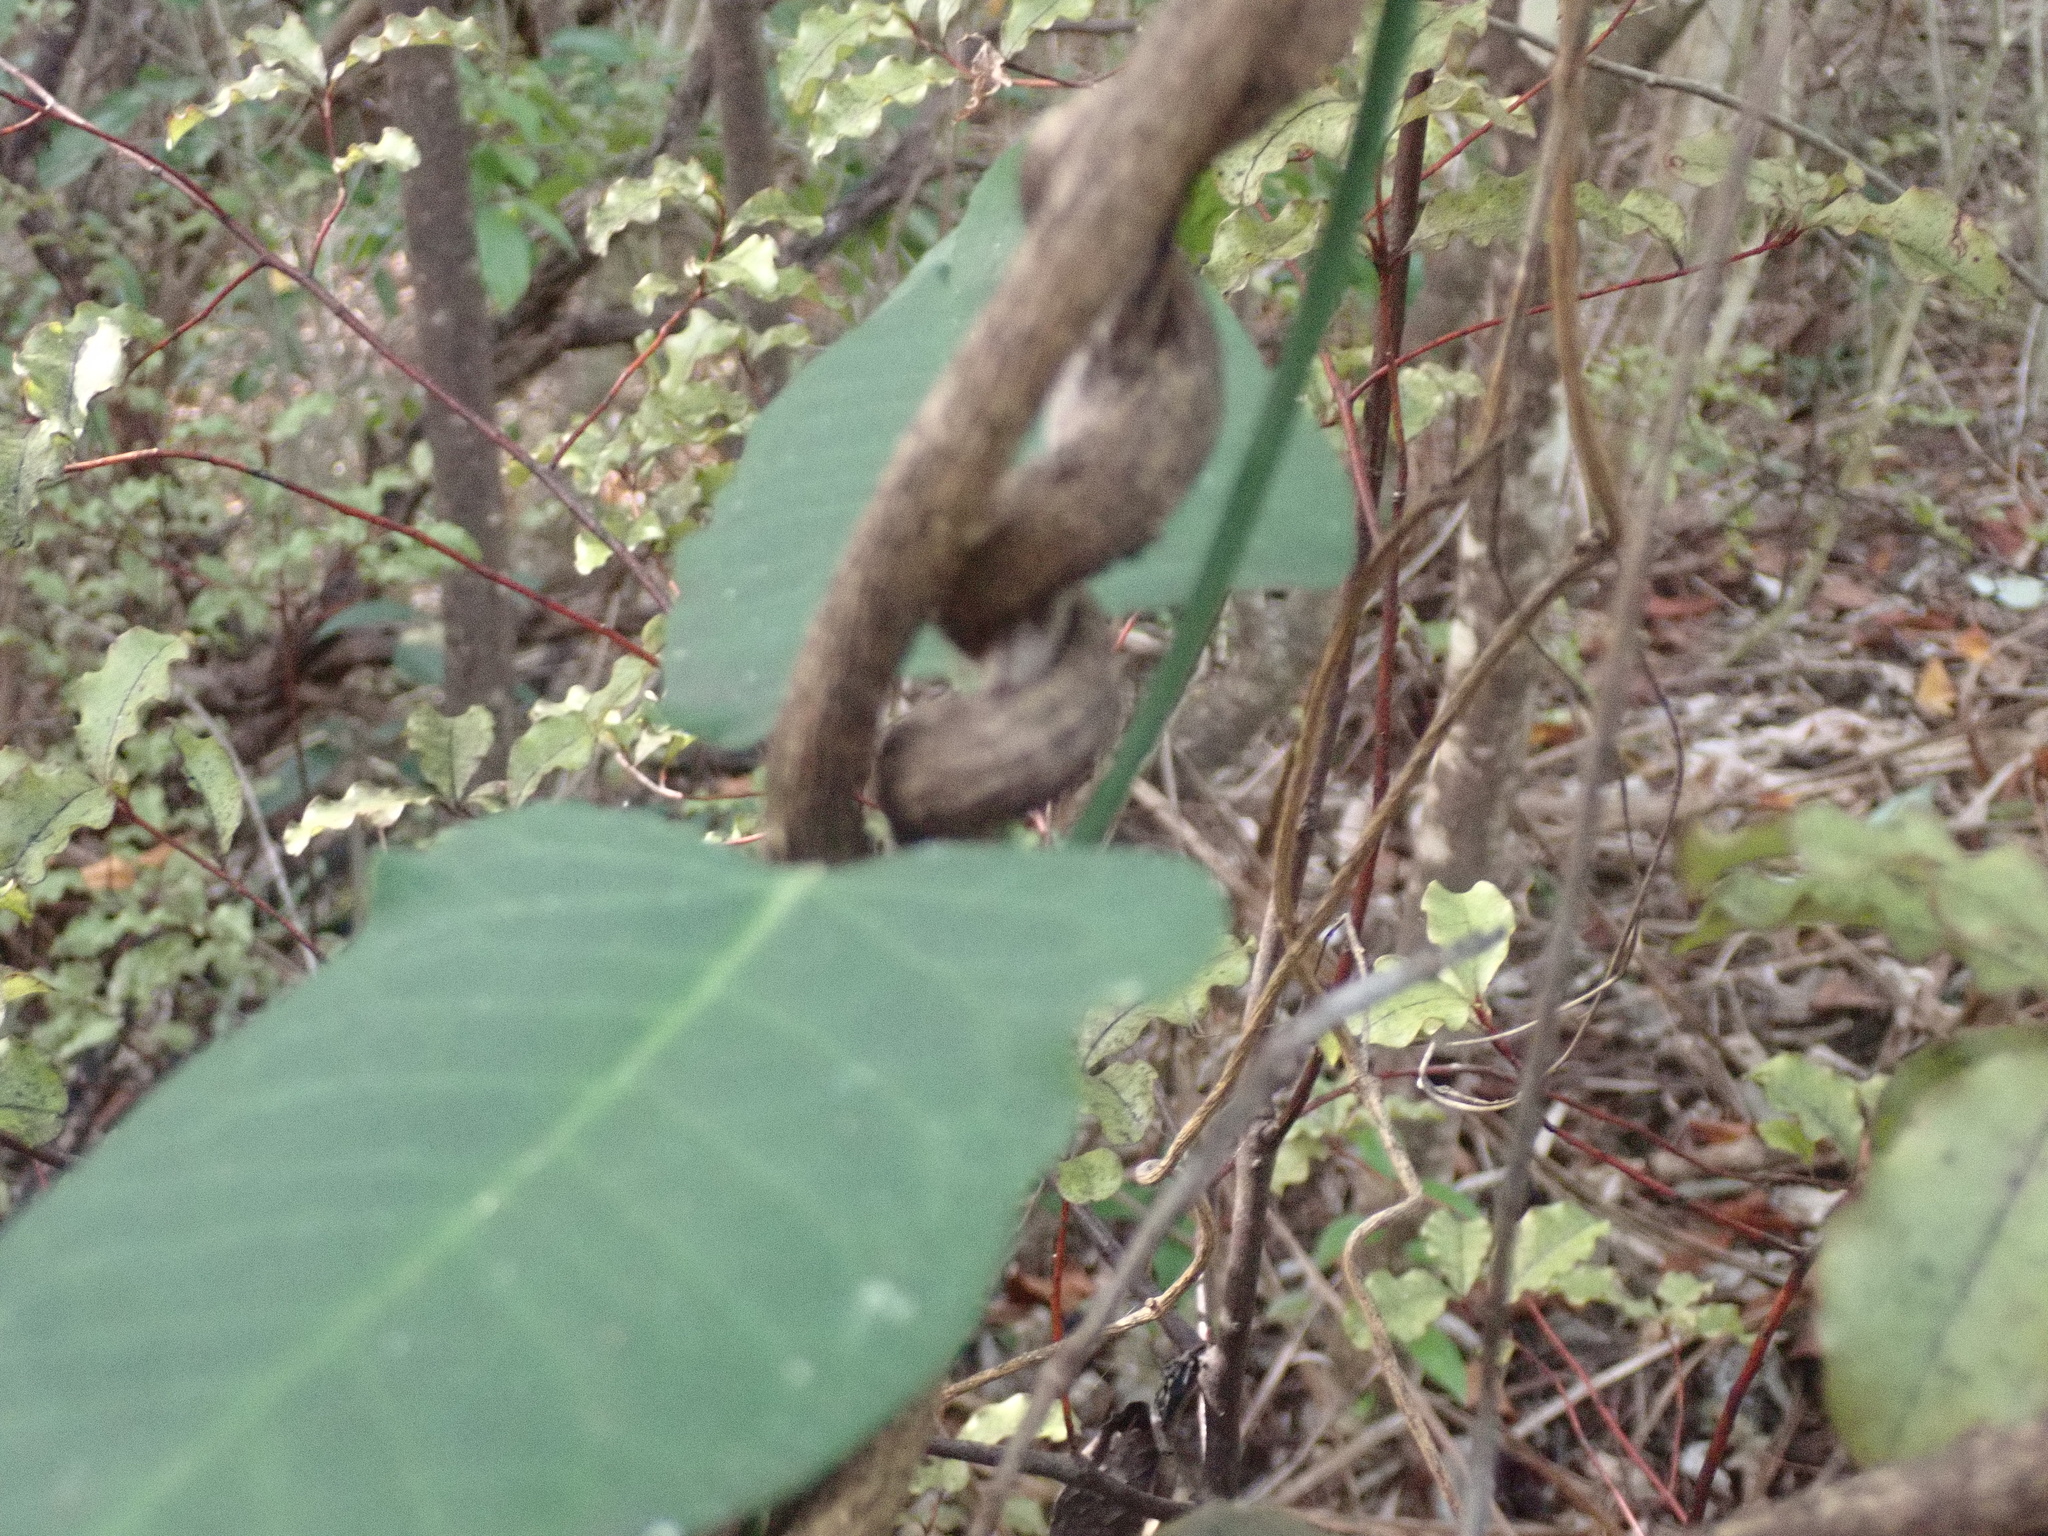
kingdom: Plantae
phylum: Tracheophyta
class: Magnoliopsida
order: Gentianales
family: Apocynaceae
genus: Araujia
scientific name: Araujia sericifera
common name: White bladderflower
